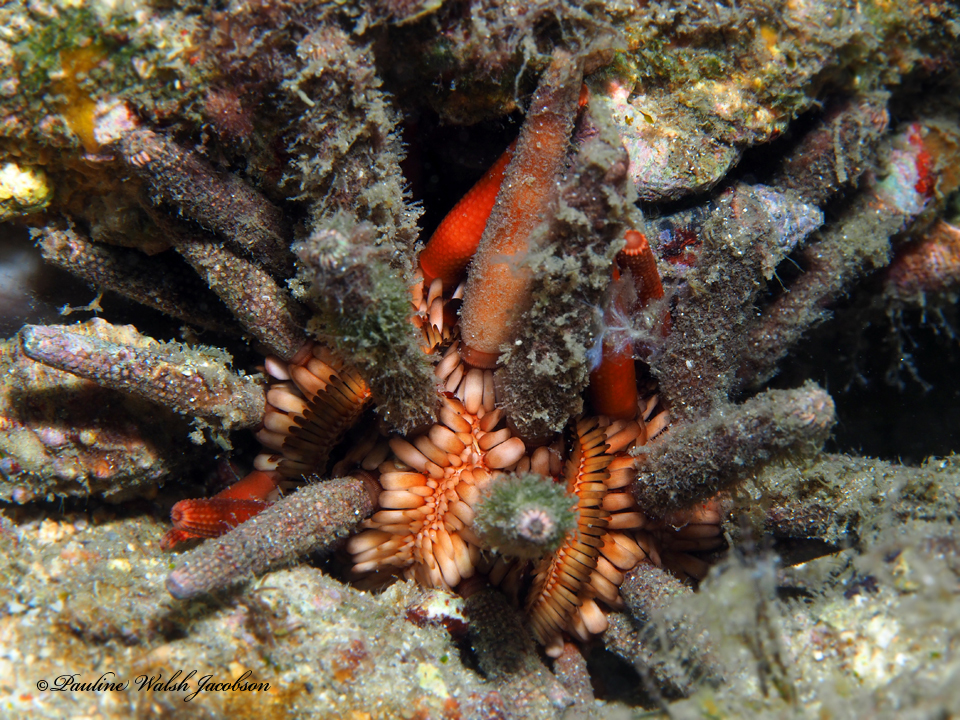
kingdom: Animalia
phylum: Echinodermata
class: Echinoidea
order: Cidaroida
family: Cidaridae
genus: Eucidaris
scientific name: Eucidaris tribuloides
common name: Slate pencil urchin
